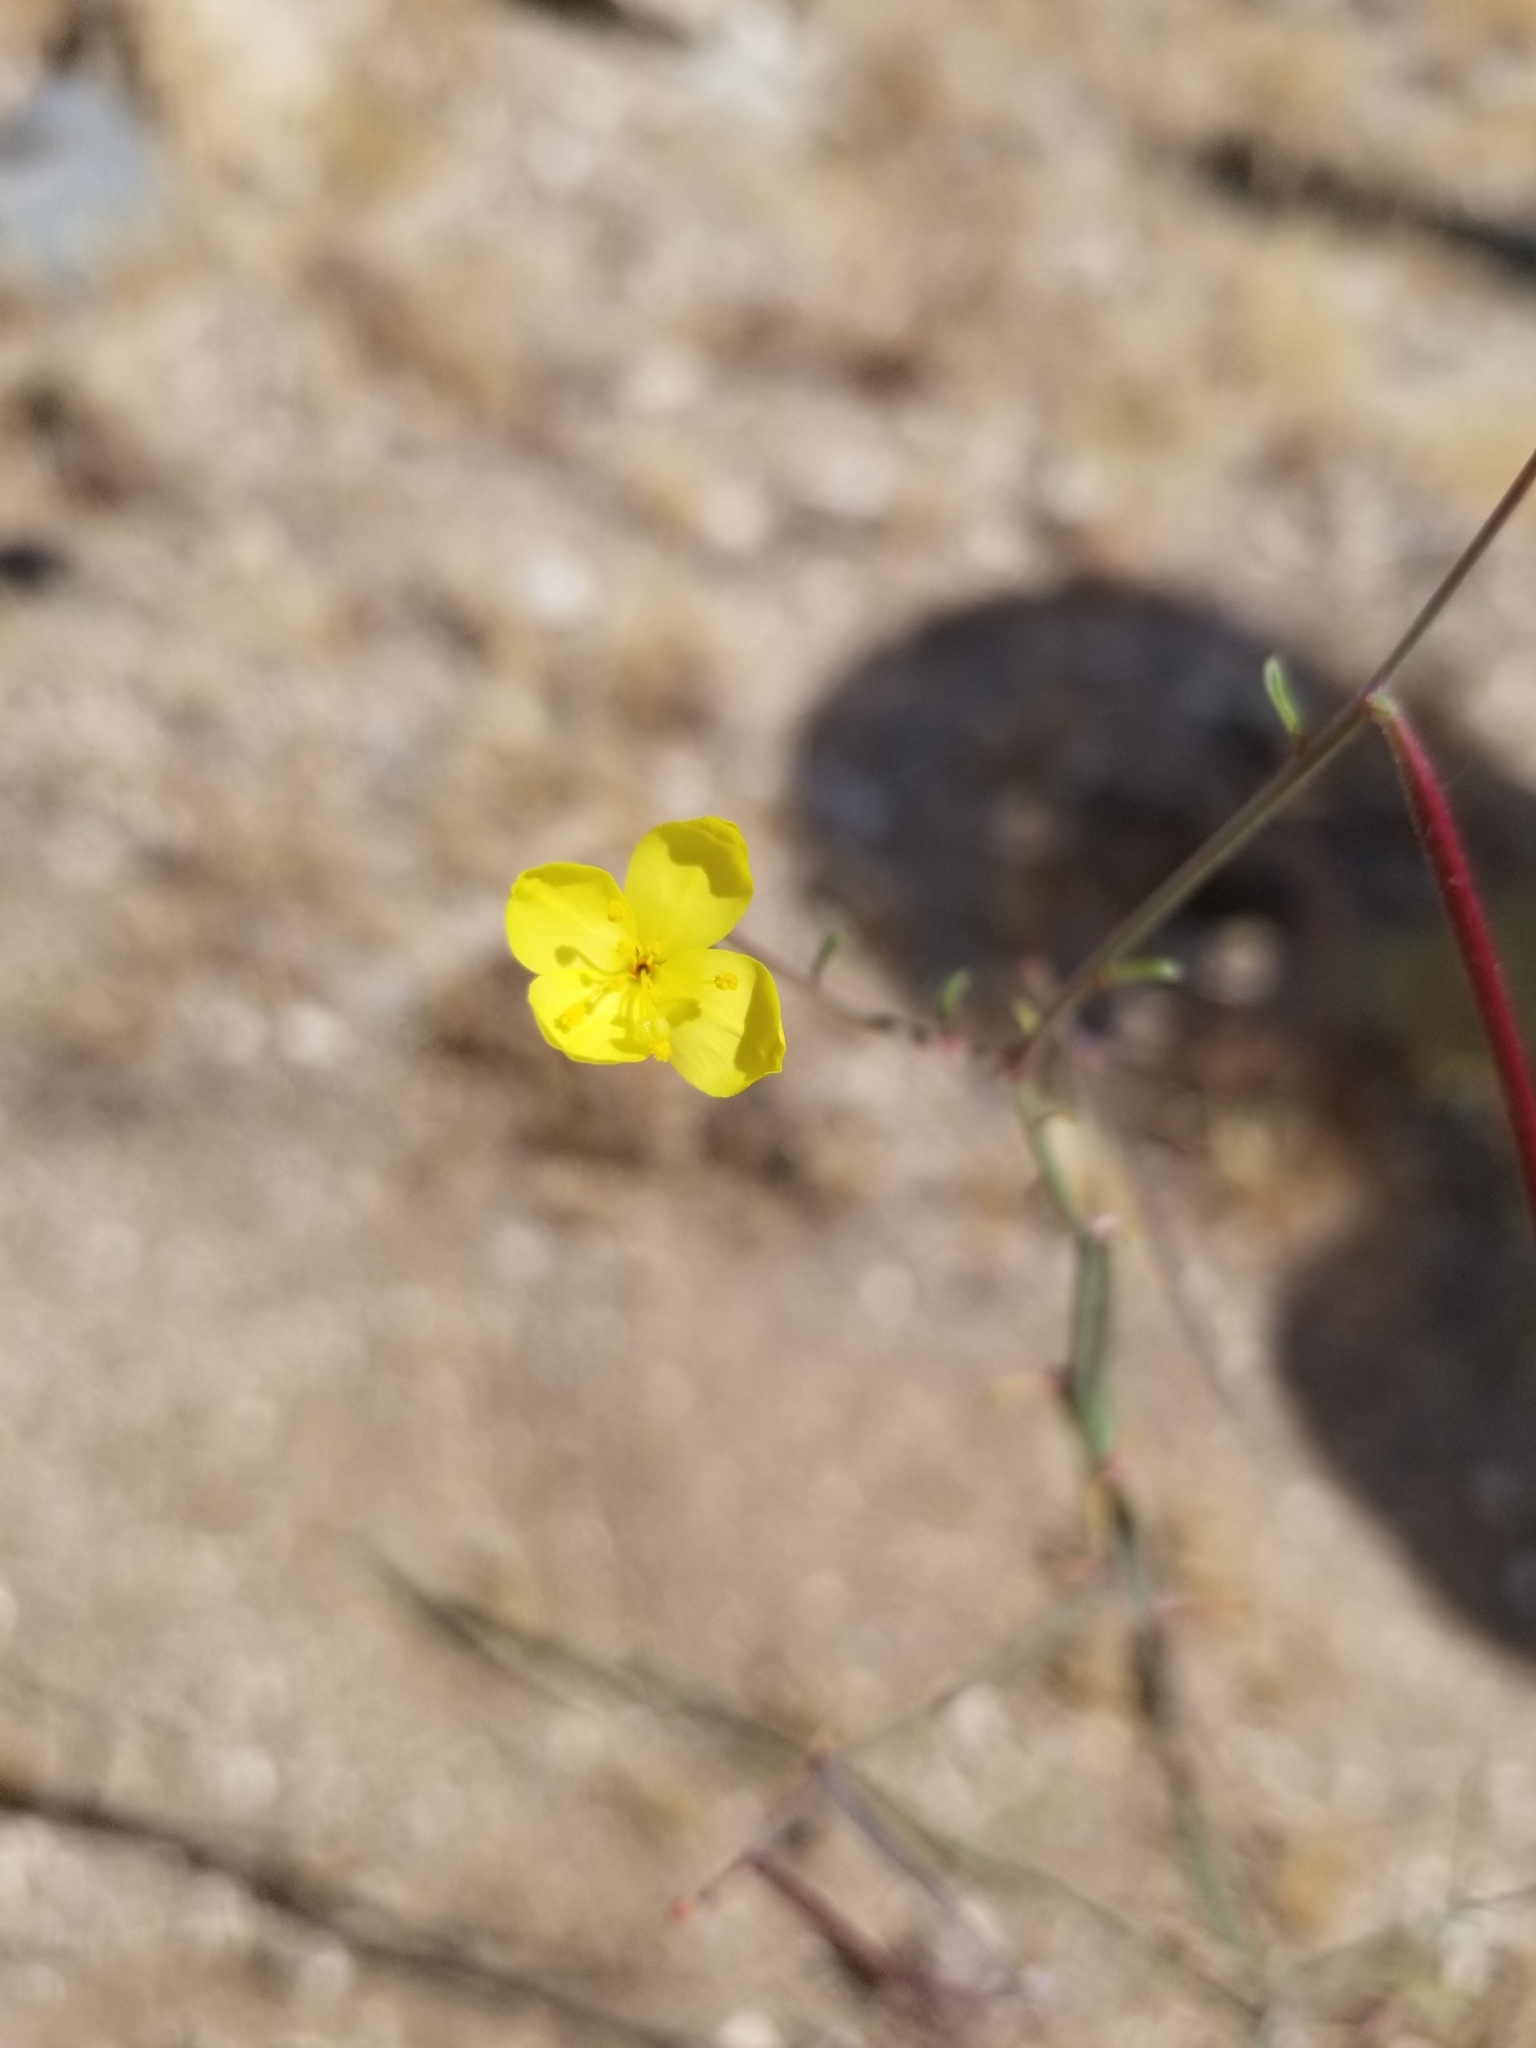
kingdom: Plantae
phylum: Tracheophyta
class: Magnoliopsida
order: Myrtales
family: Onagraceae
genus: Eulobus
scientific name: Eulobus californicus
